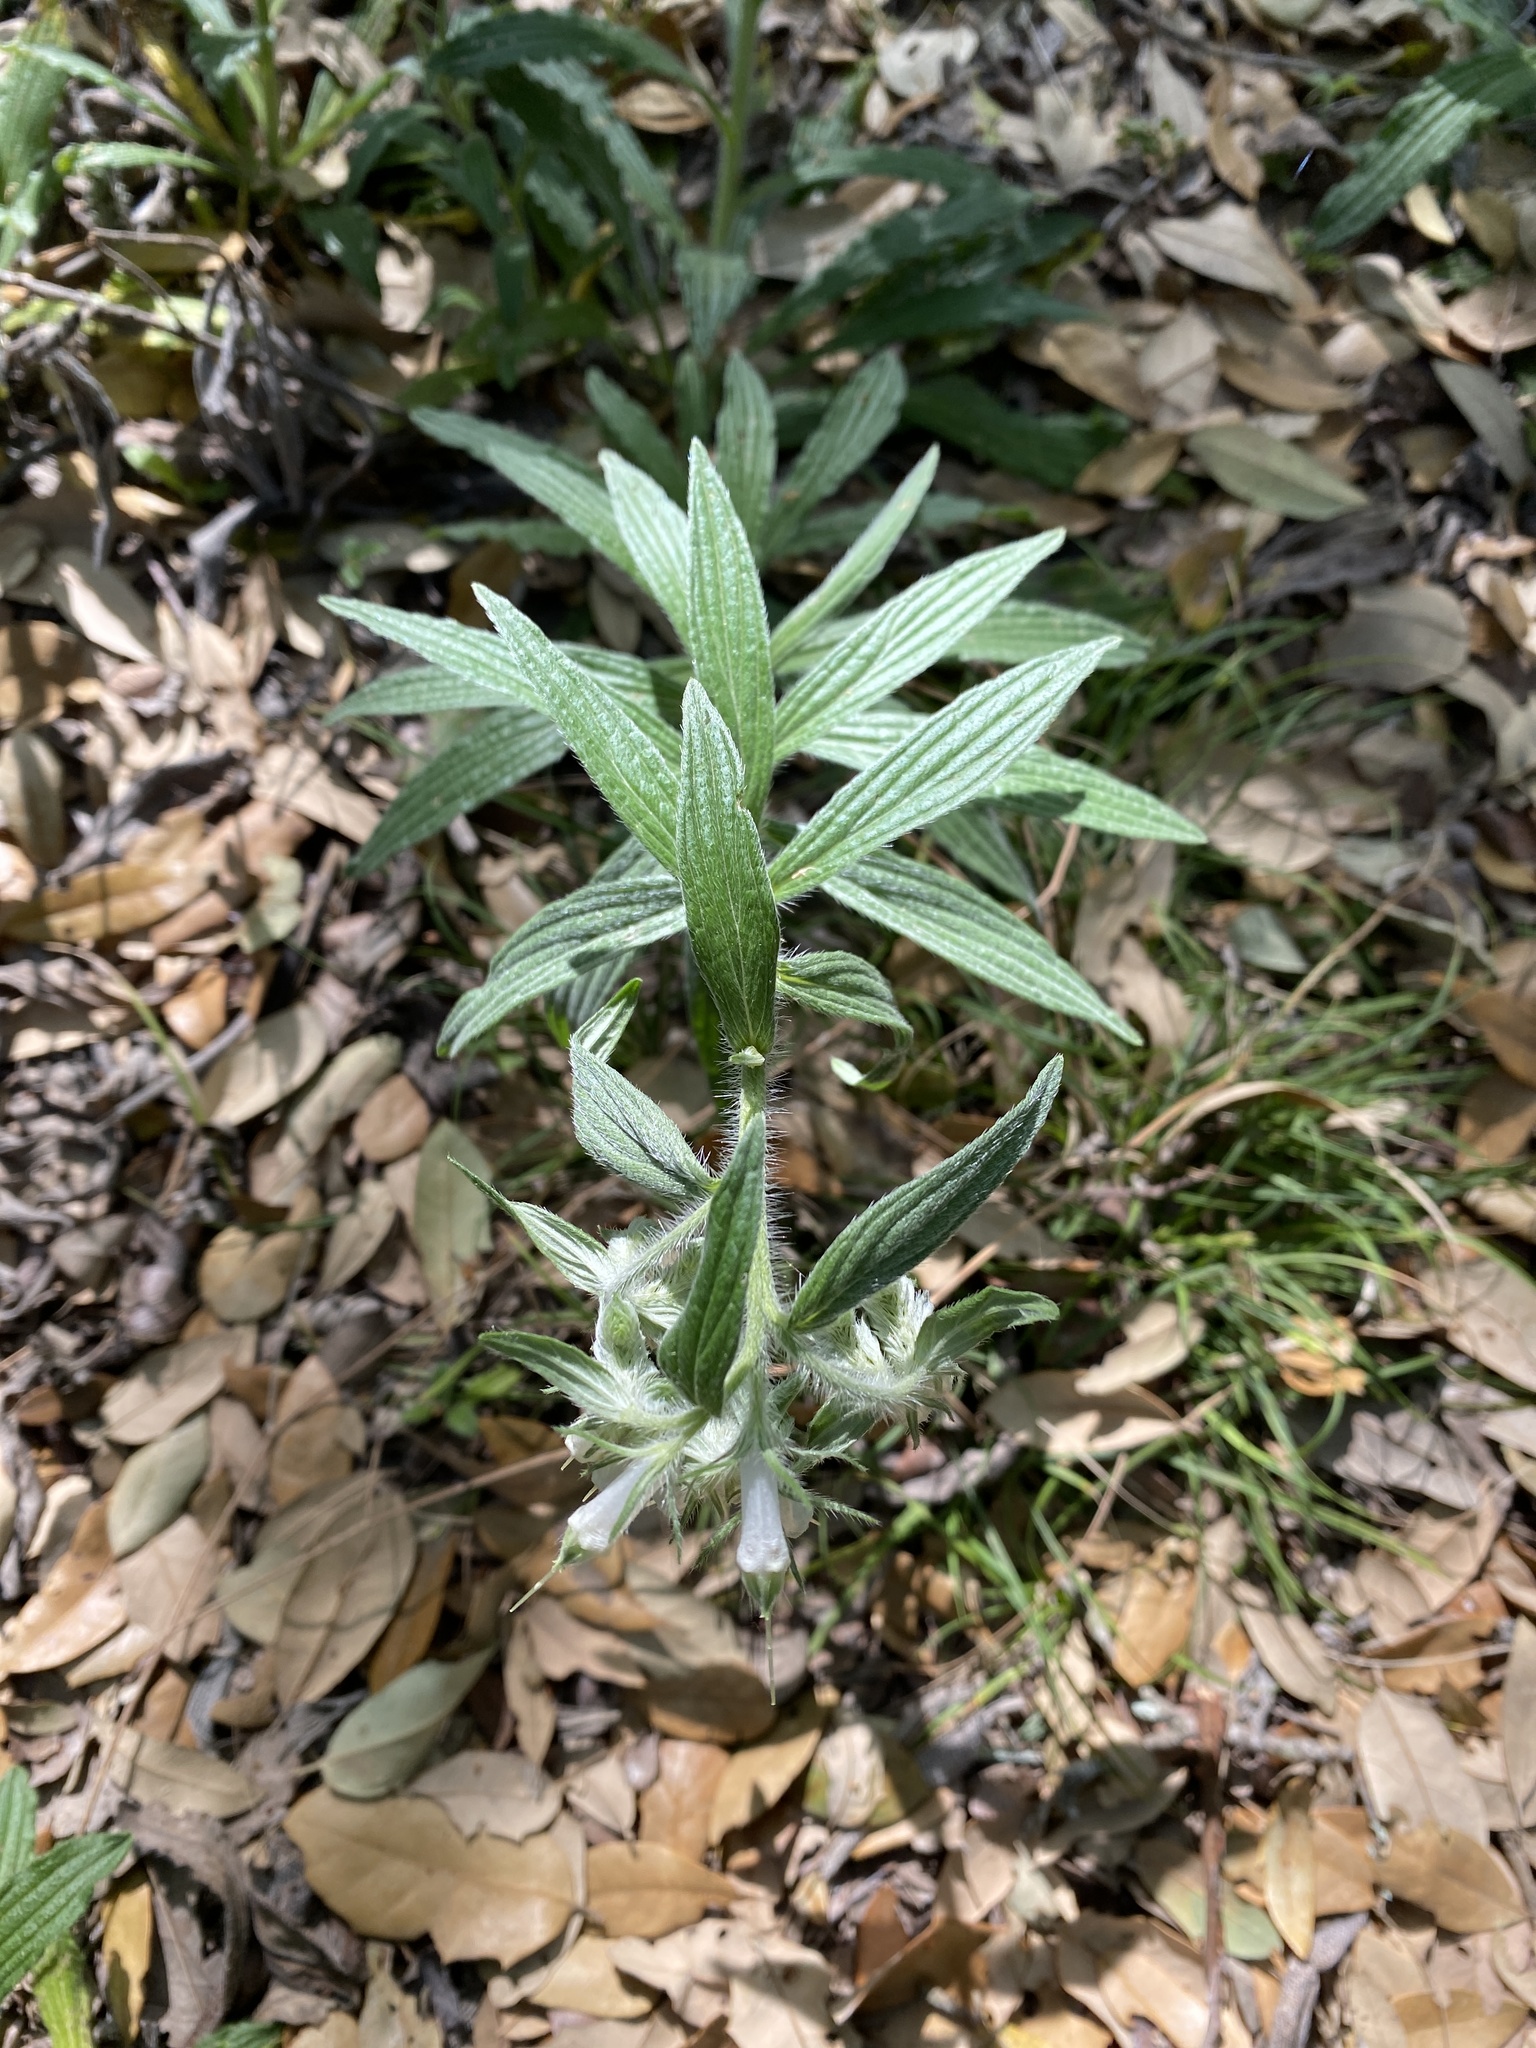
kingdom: Plantae
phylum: Tracheophyta
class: Magnoliopsida
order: Boraginales
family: Boraginaceae
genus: Lithospermum
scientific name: Lithospermum caroliniense
